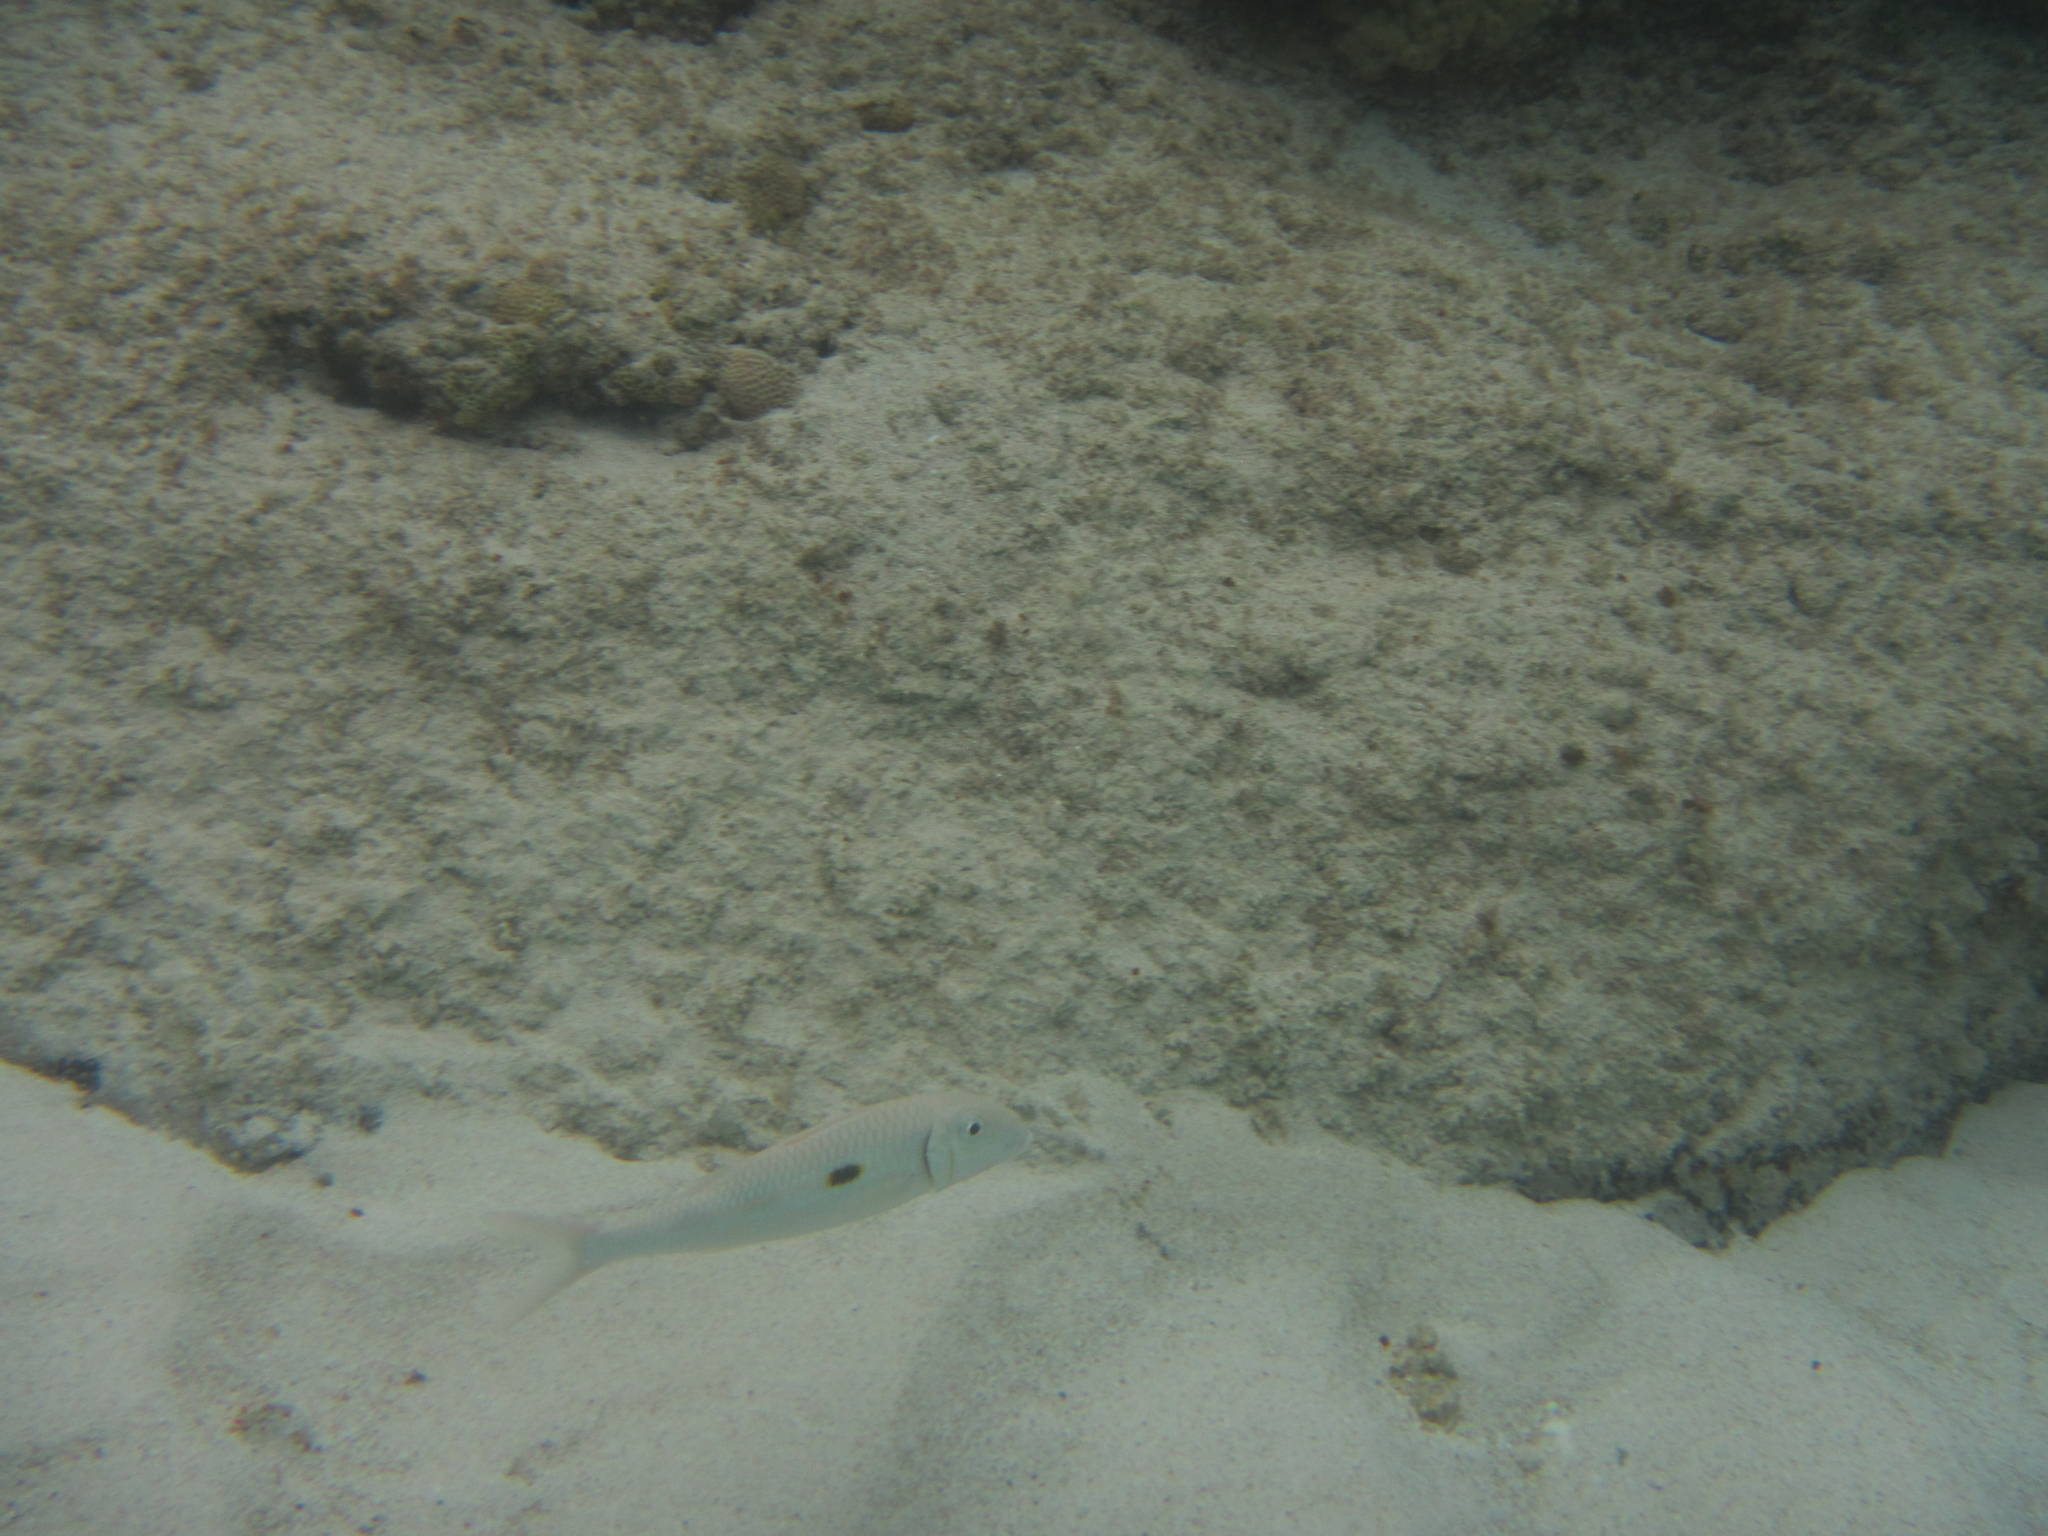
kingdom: Animalia
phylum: Chordata
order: Perciformes
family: Mullidae
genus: Mulloidichthys
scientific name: Mulloidichthys flavolineatus
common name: Yellowstripe goatfish
